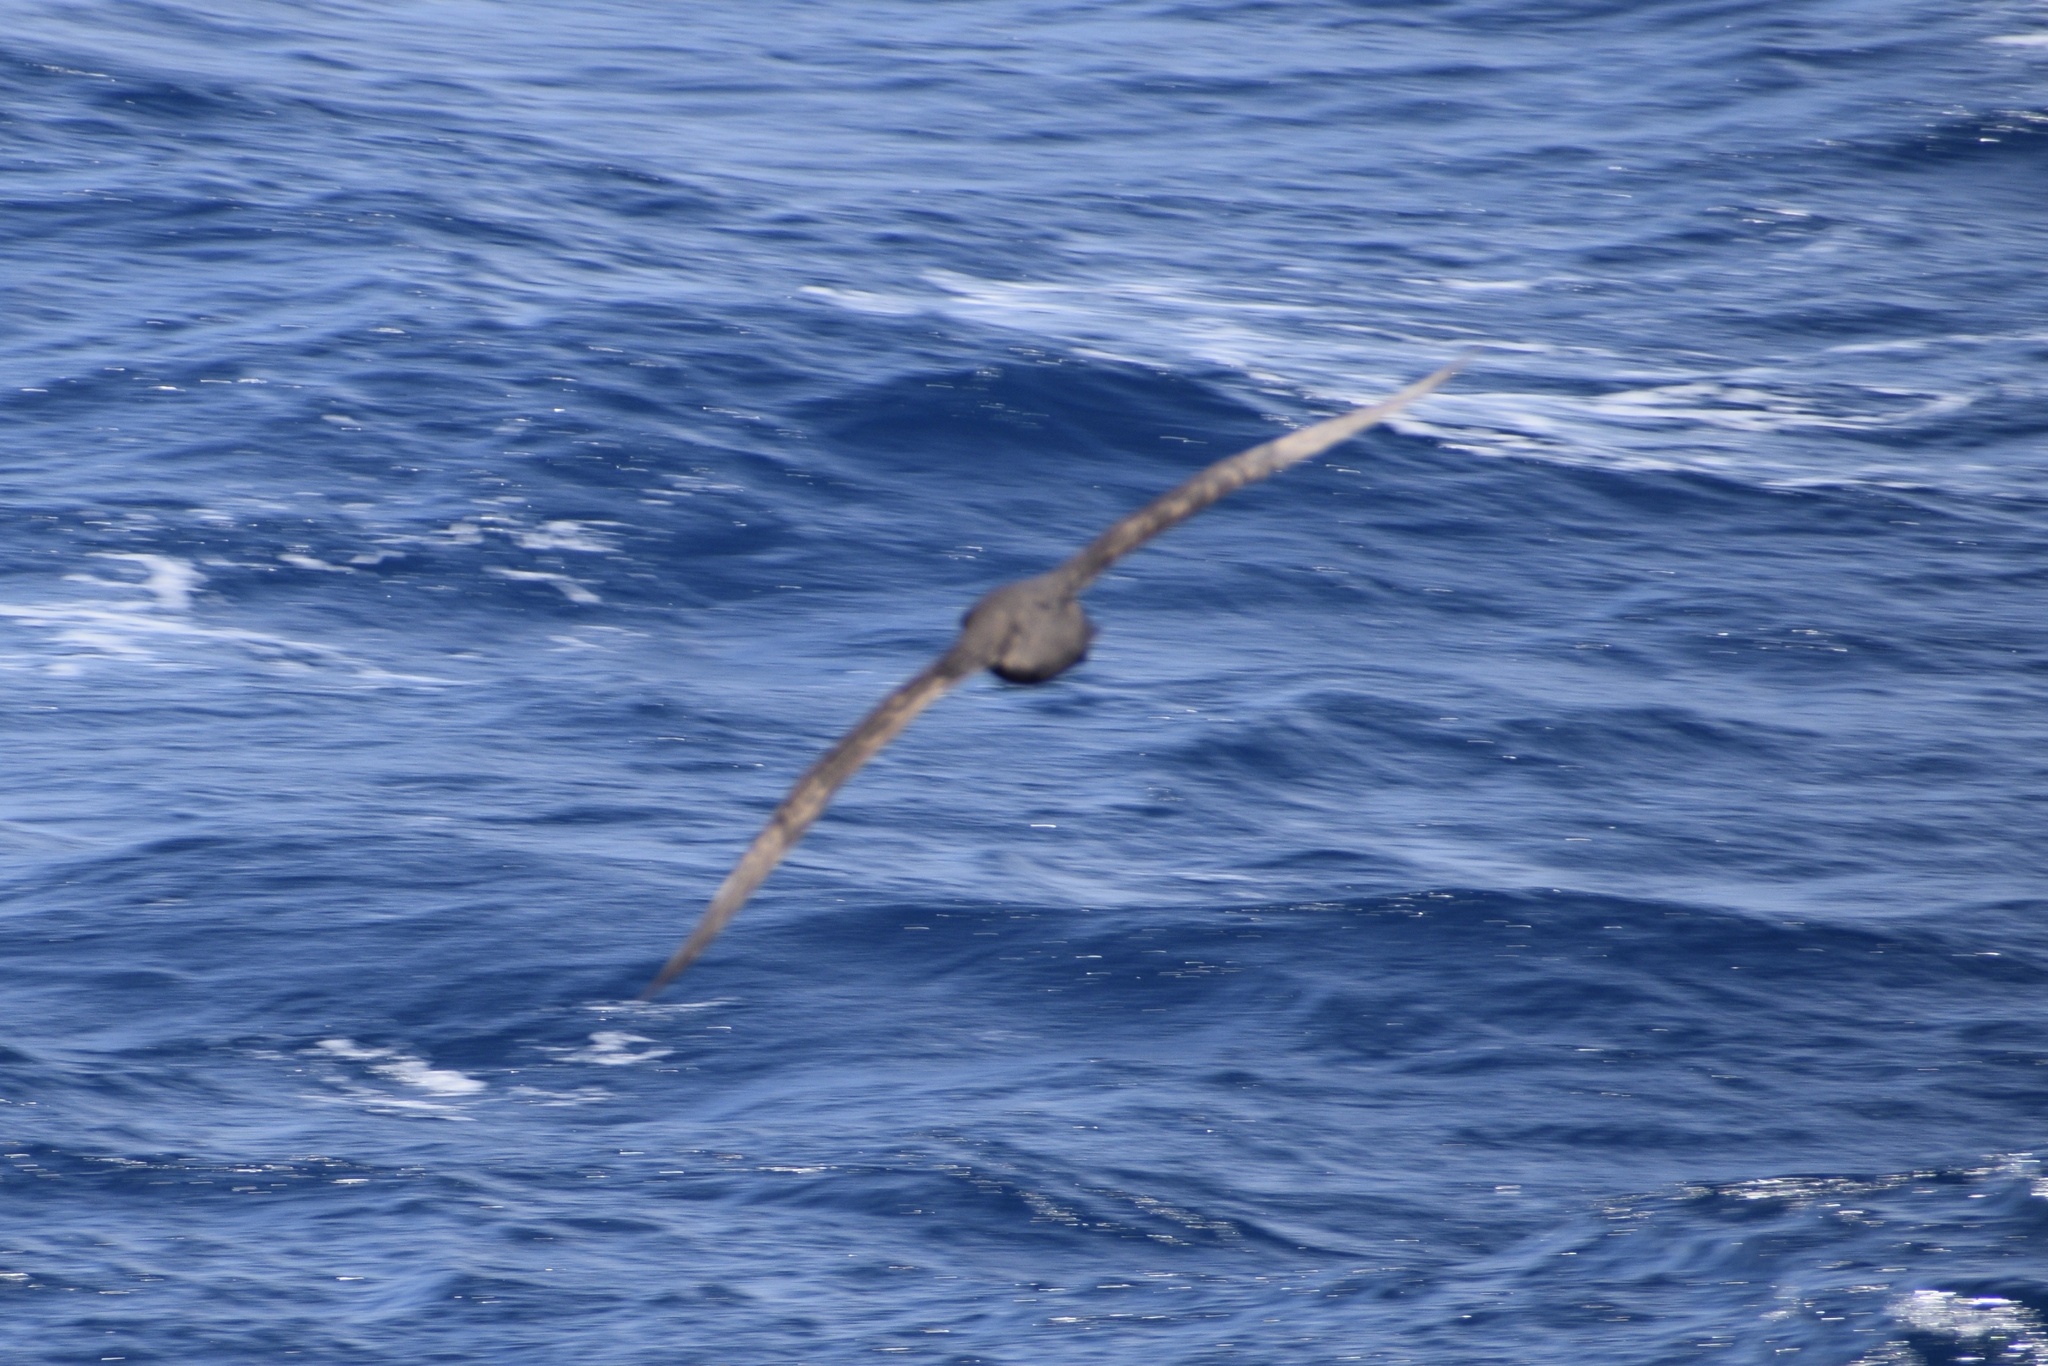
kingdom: Animalia
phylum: Chordata
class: Aves
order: Procellariiformes
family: Procellariidae
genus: Procellaria
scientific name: Procellaria aequinoctialis
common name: White-chinned petrel
